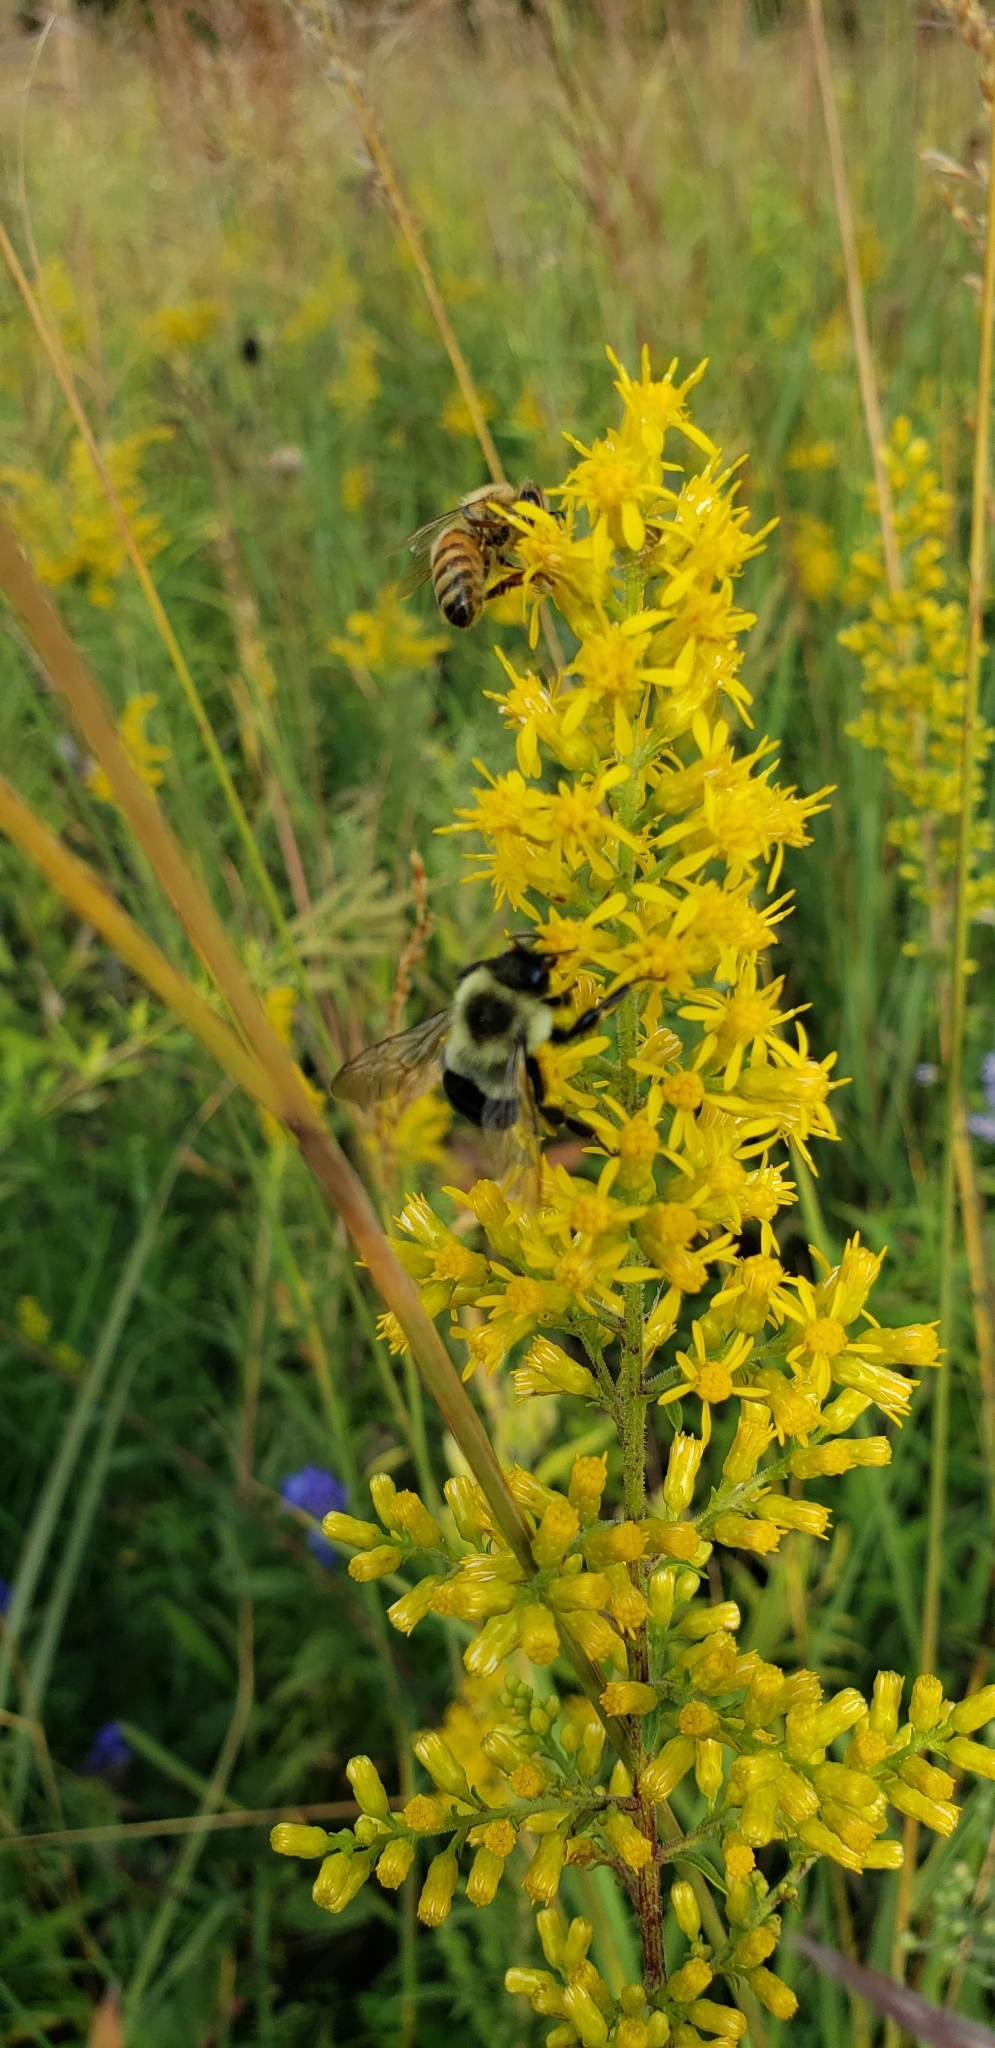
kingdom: Animalia
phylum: Arthropoda
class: Insecta
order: Hymenoptera
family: Apidae
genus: Bombus
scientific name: Bombus impatiens
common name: Common eastern bumble bee
